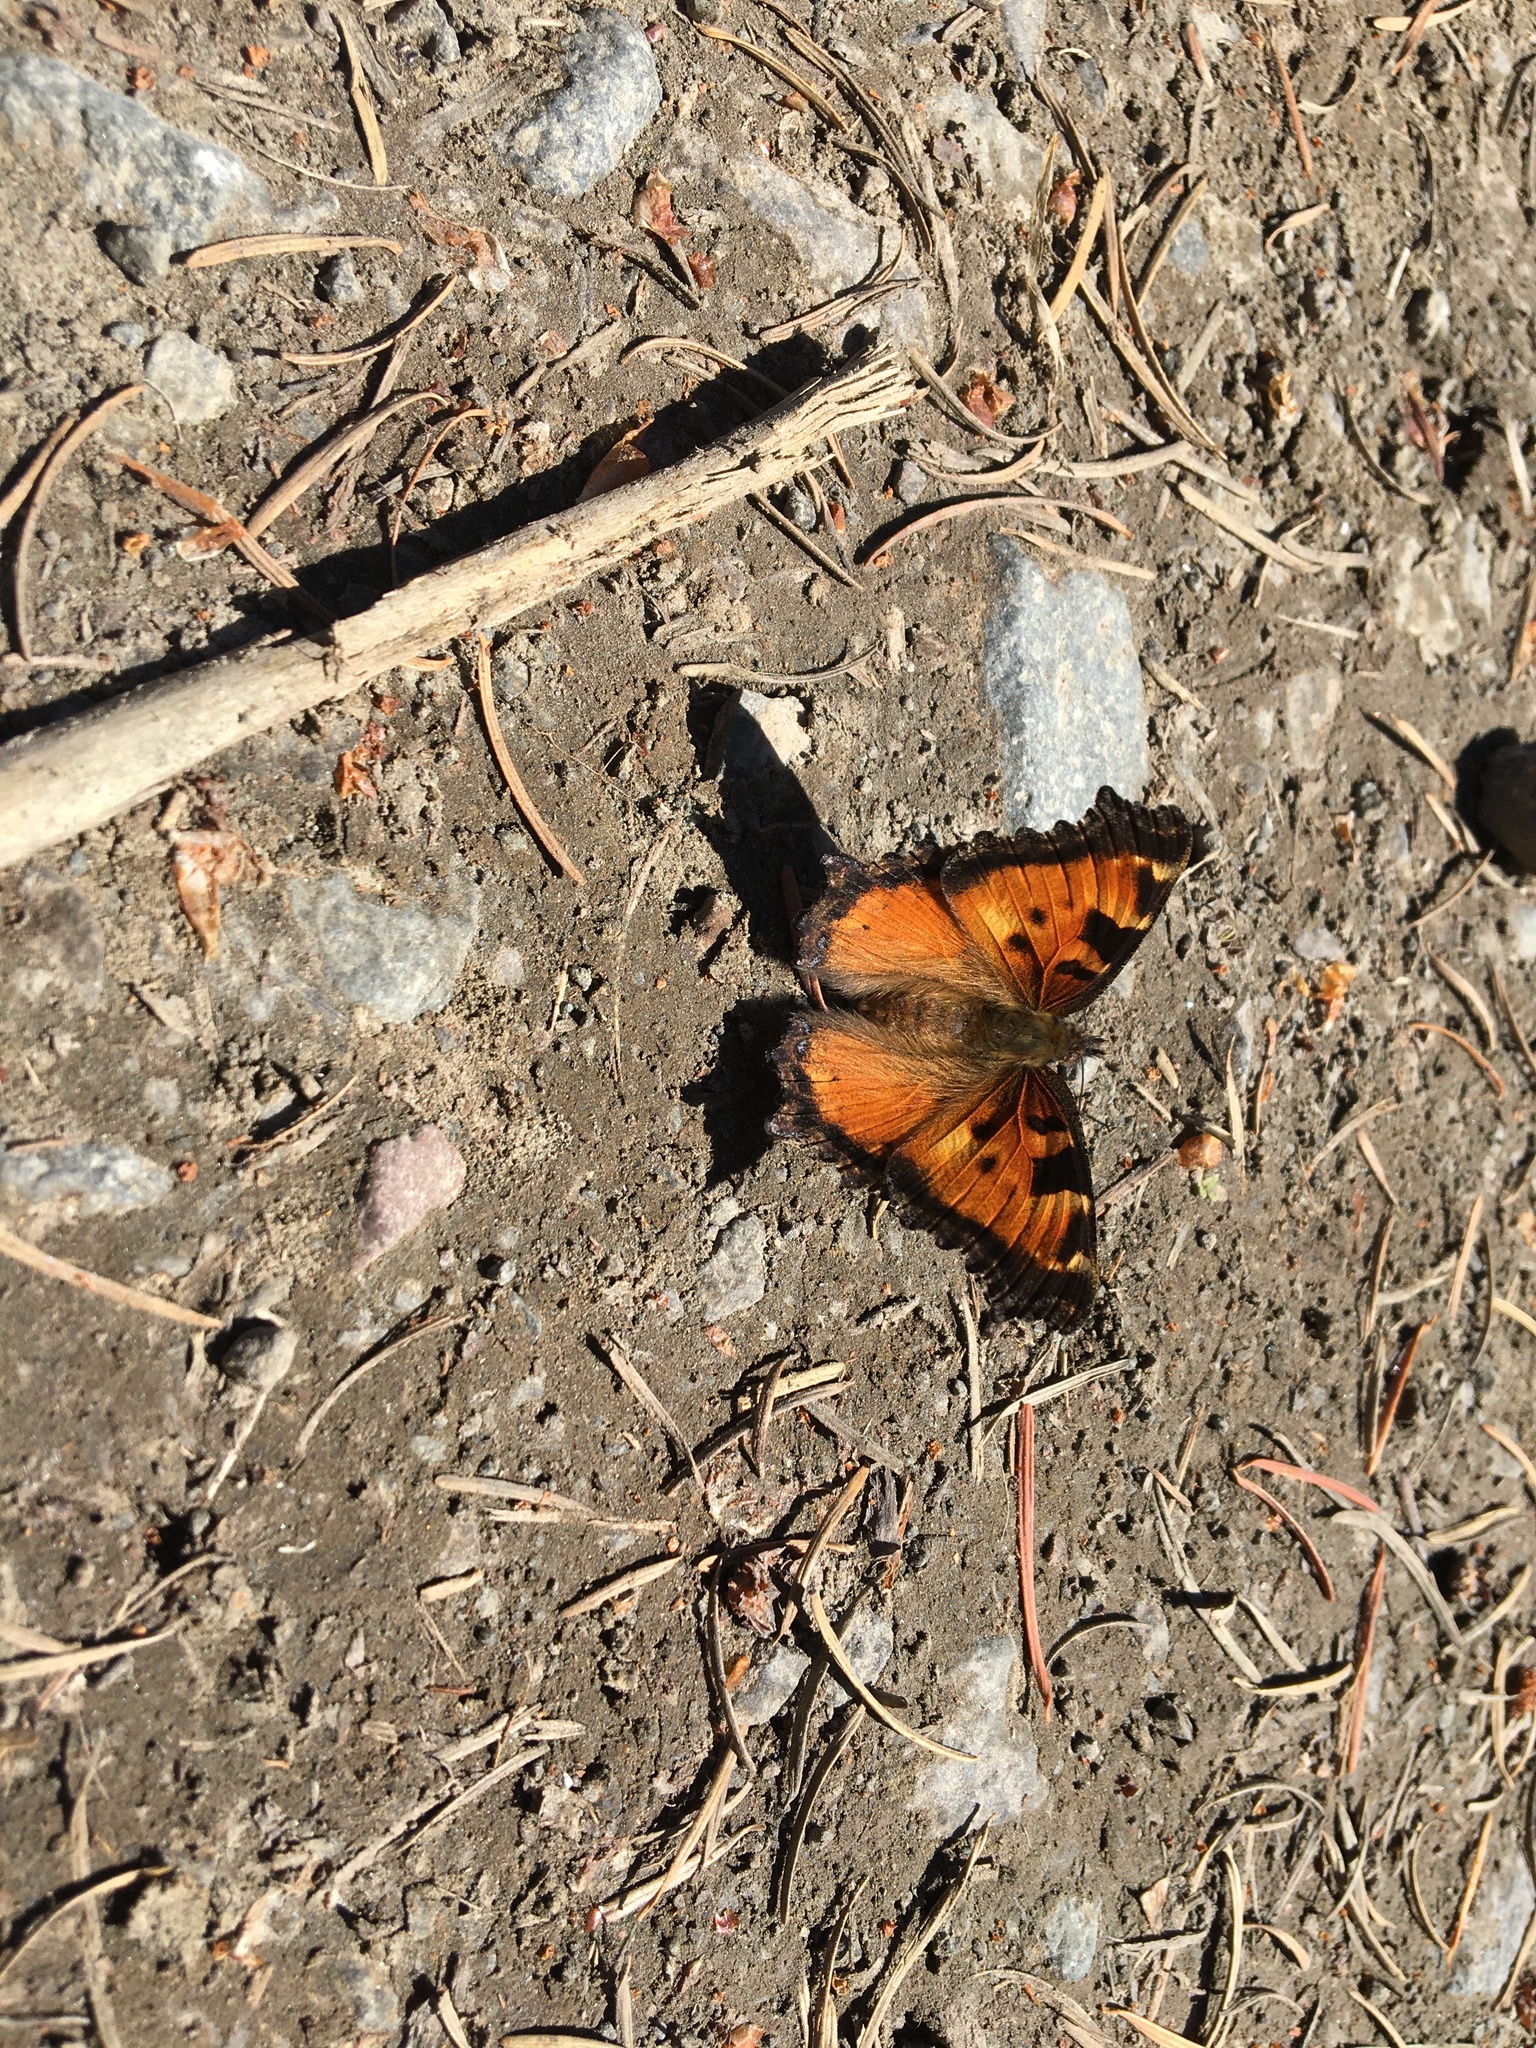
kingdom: Animalia
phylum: Arthropoda
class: Insecta
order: Lepidoptera
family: Nymphalidae
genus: Nymphalis
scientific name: Nymphalis californica
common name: California tortoiseshell
